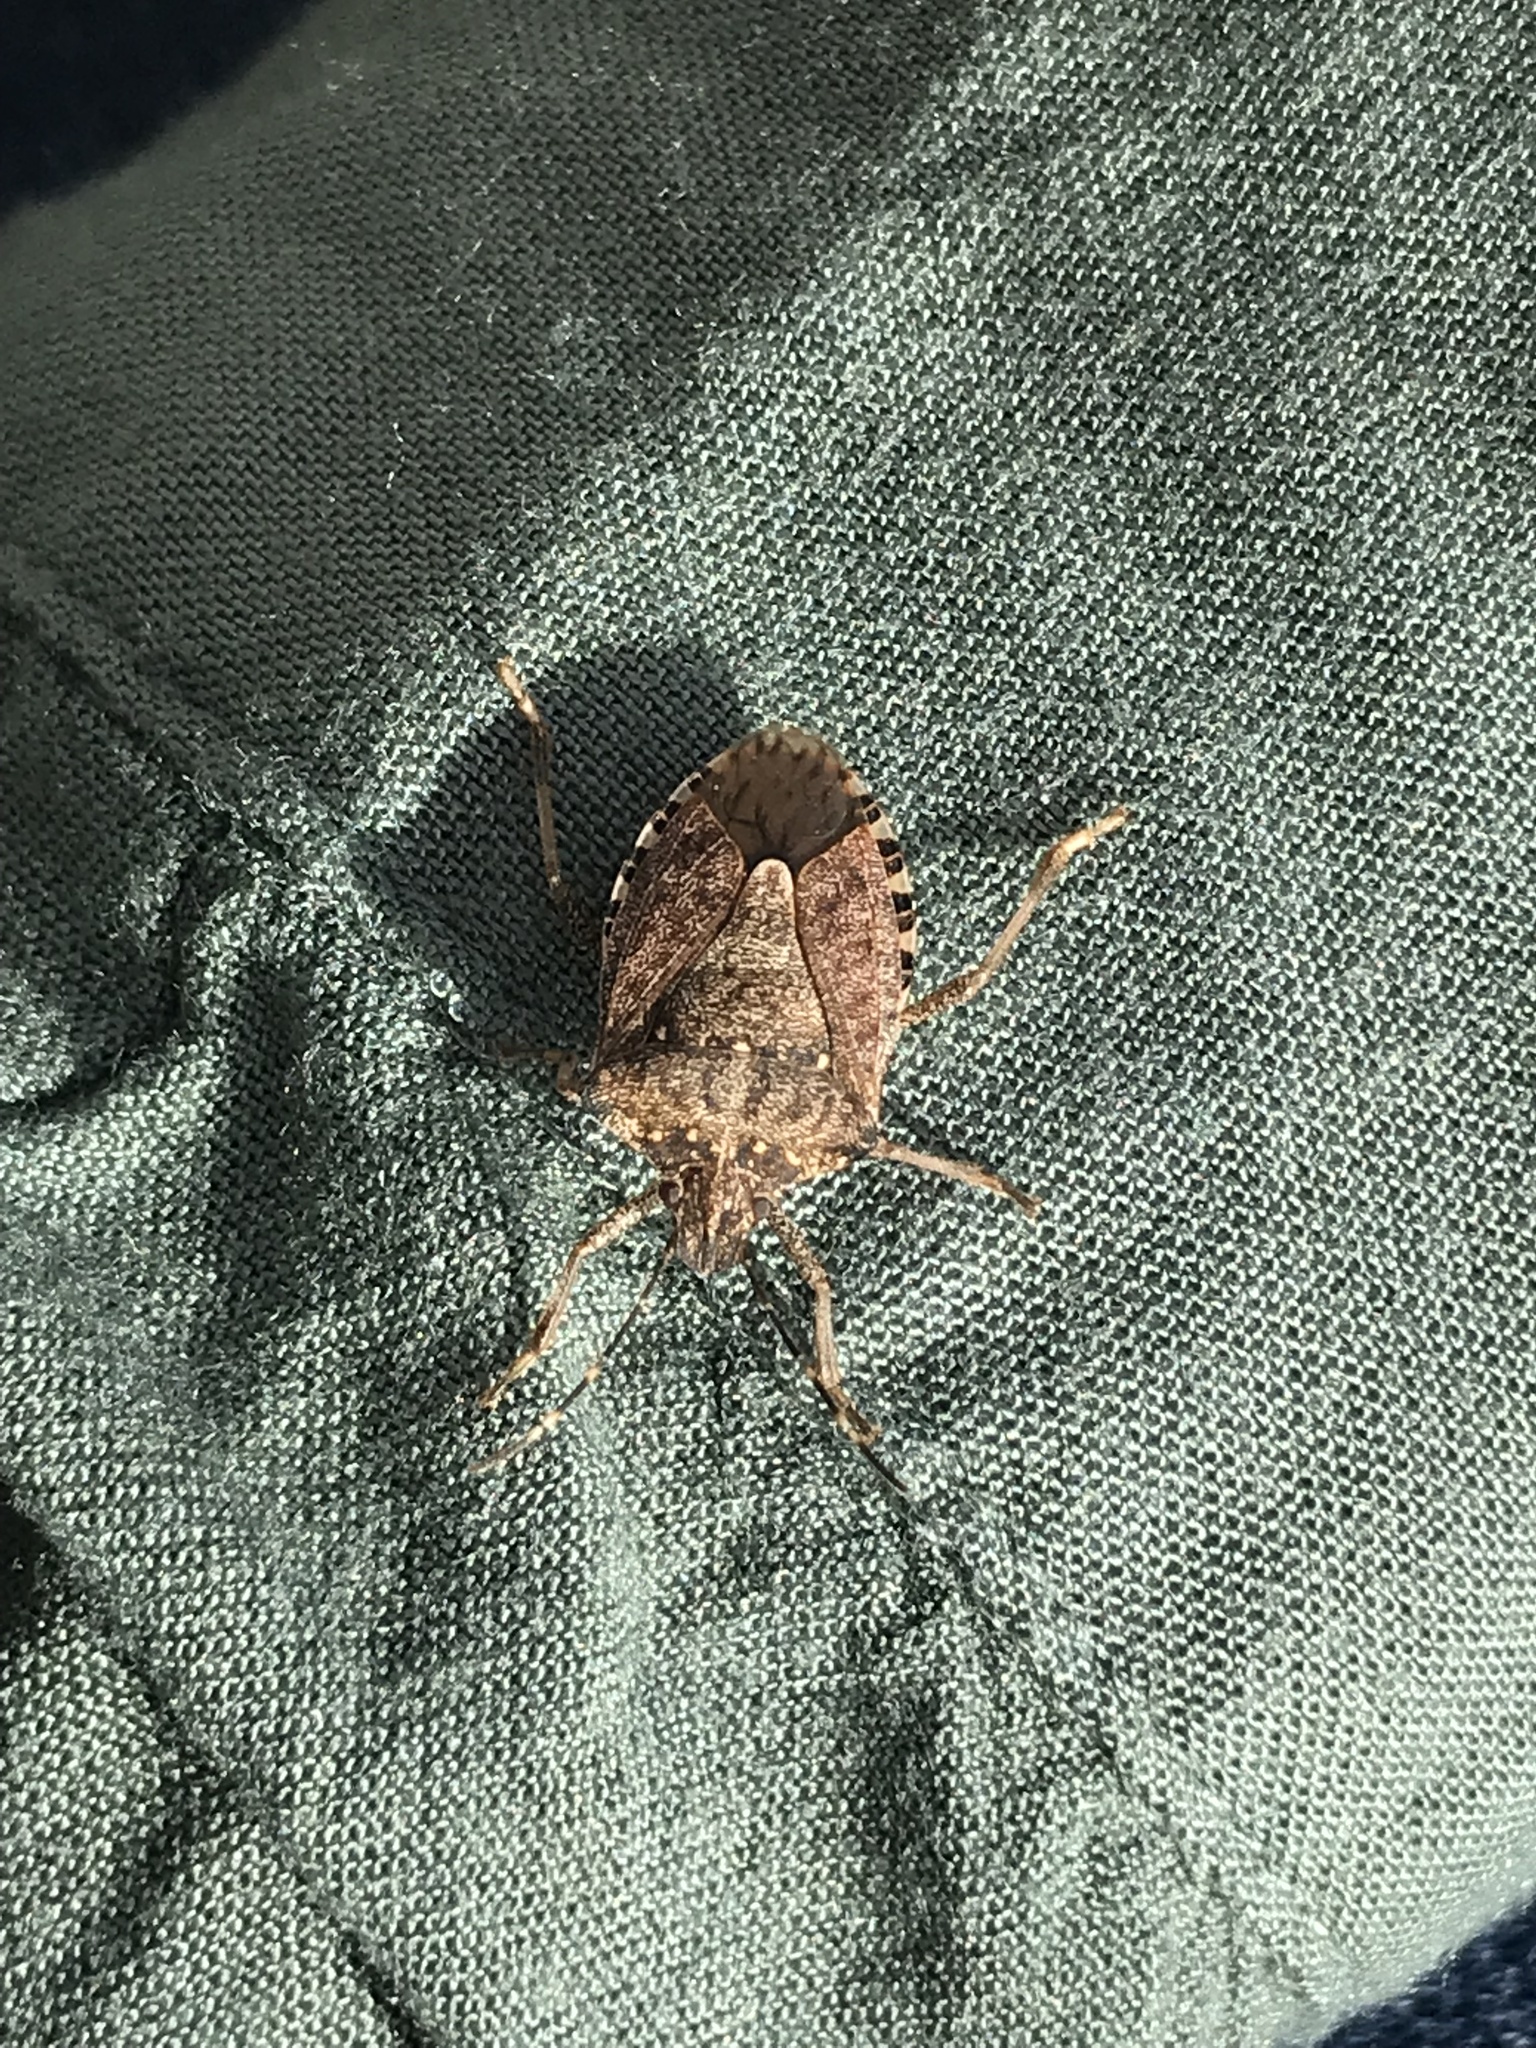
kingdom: Animalia
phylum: Arthropoda
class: Insecta
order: Hemiptera
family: Pentatomidae
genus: Halyomorpha
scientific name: Halyomorpha halys
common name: Brown marmorated stink bug
